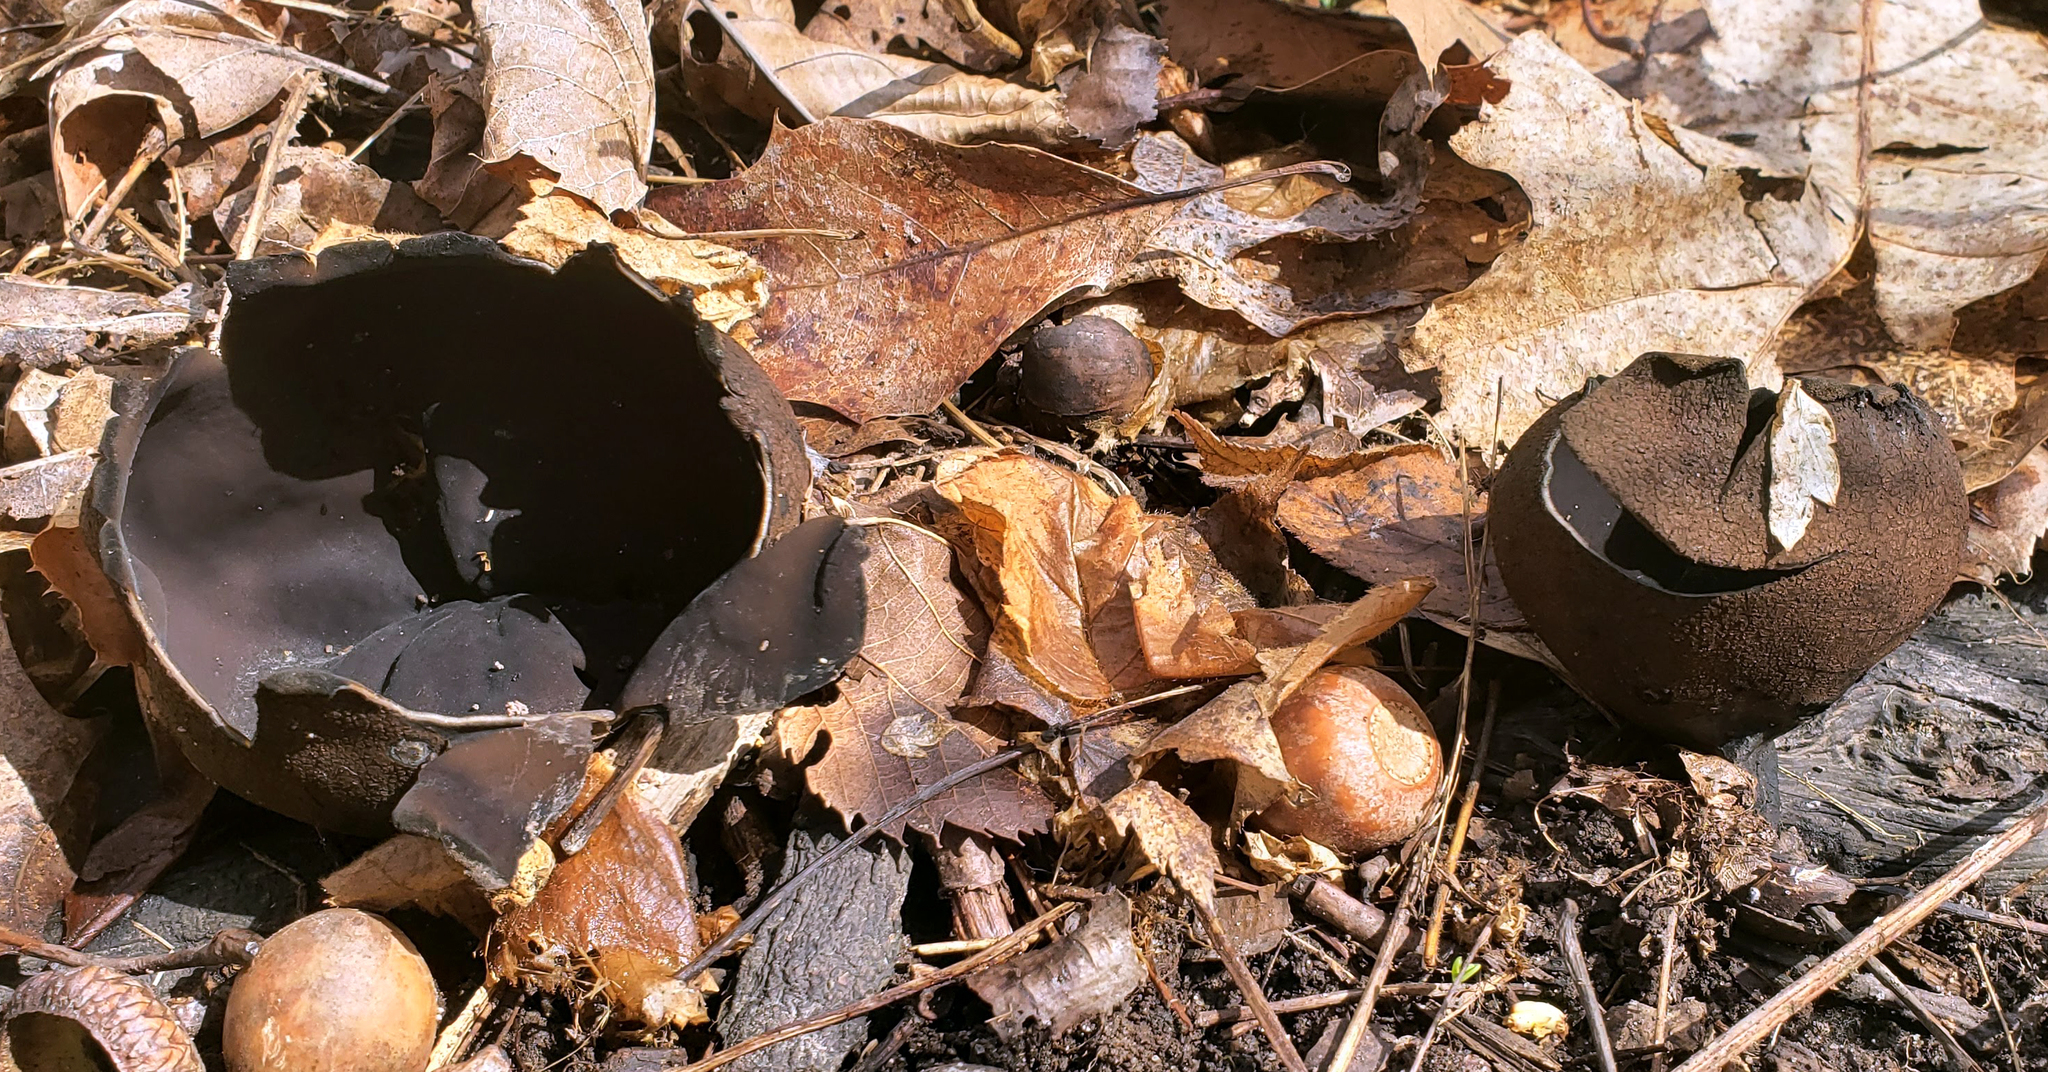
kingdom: Fungi
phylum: Ascomycota
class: Pezizomycetes
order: Pezizales
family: Sarcosomataceae
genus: Urnula
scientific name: Urnula craterium
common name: Devil's urn
